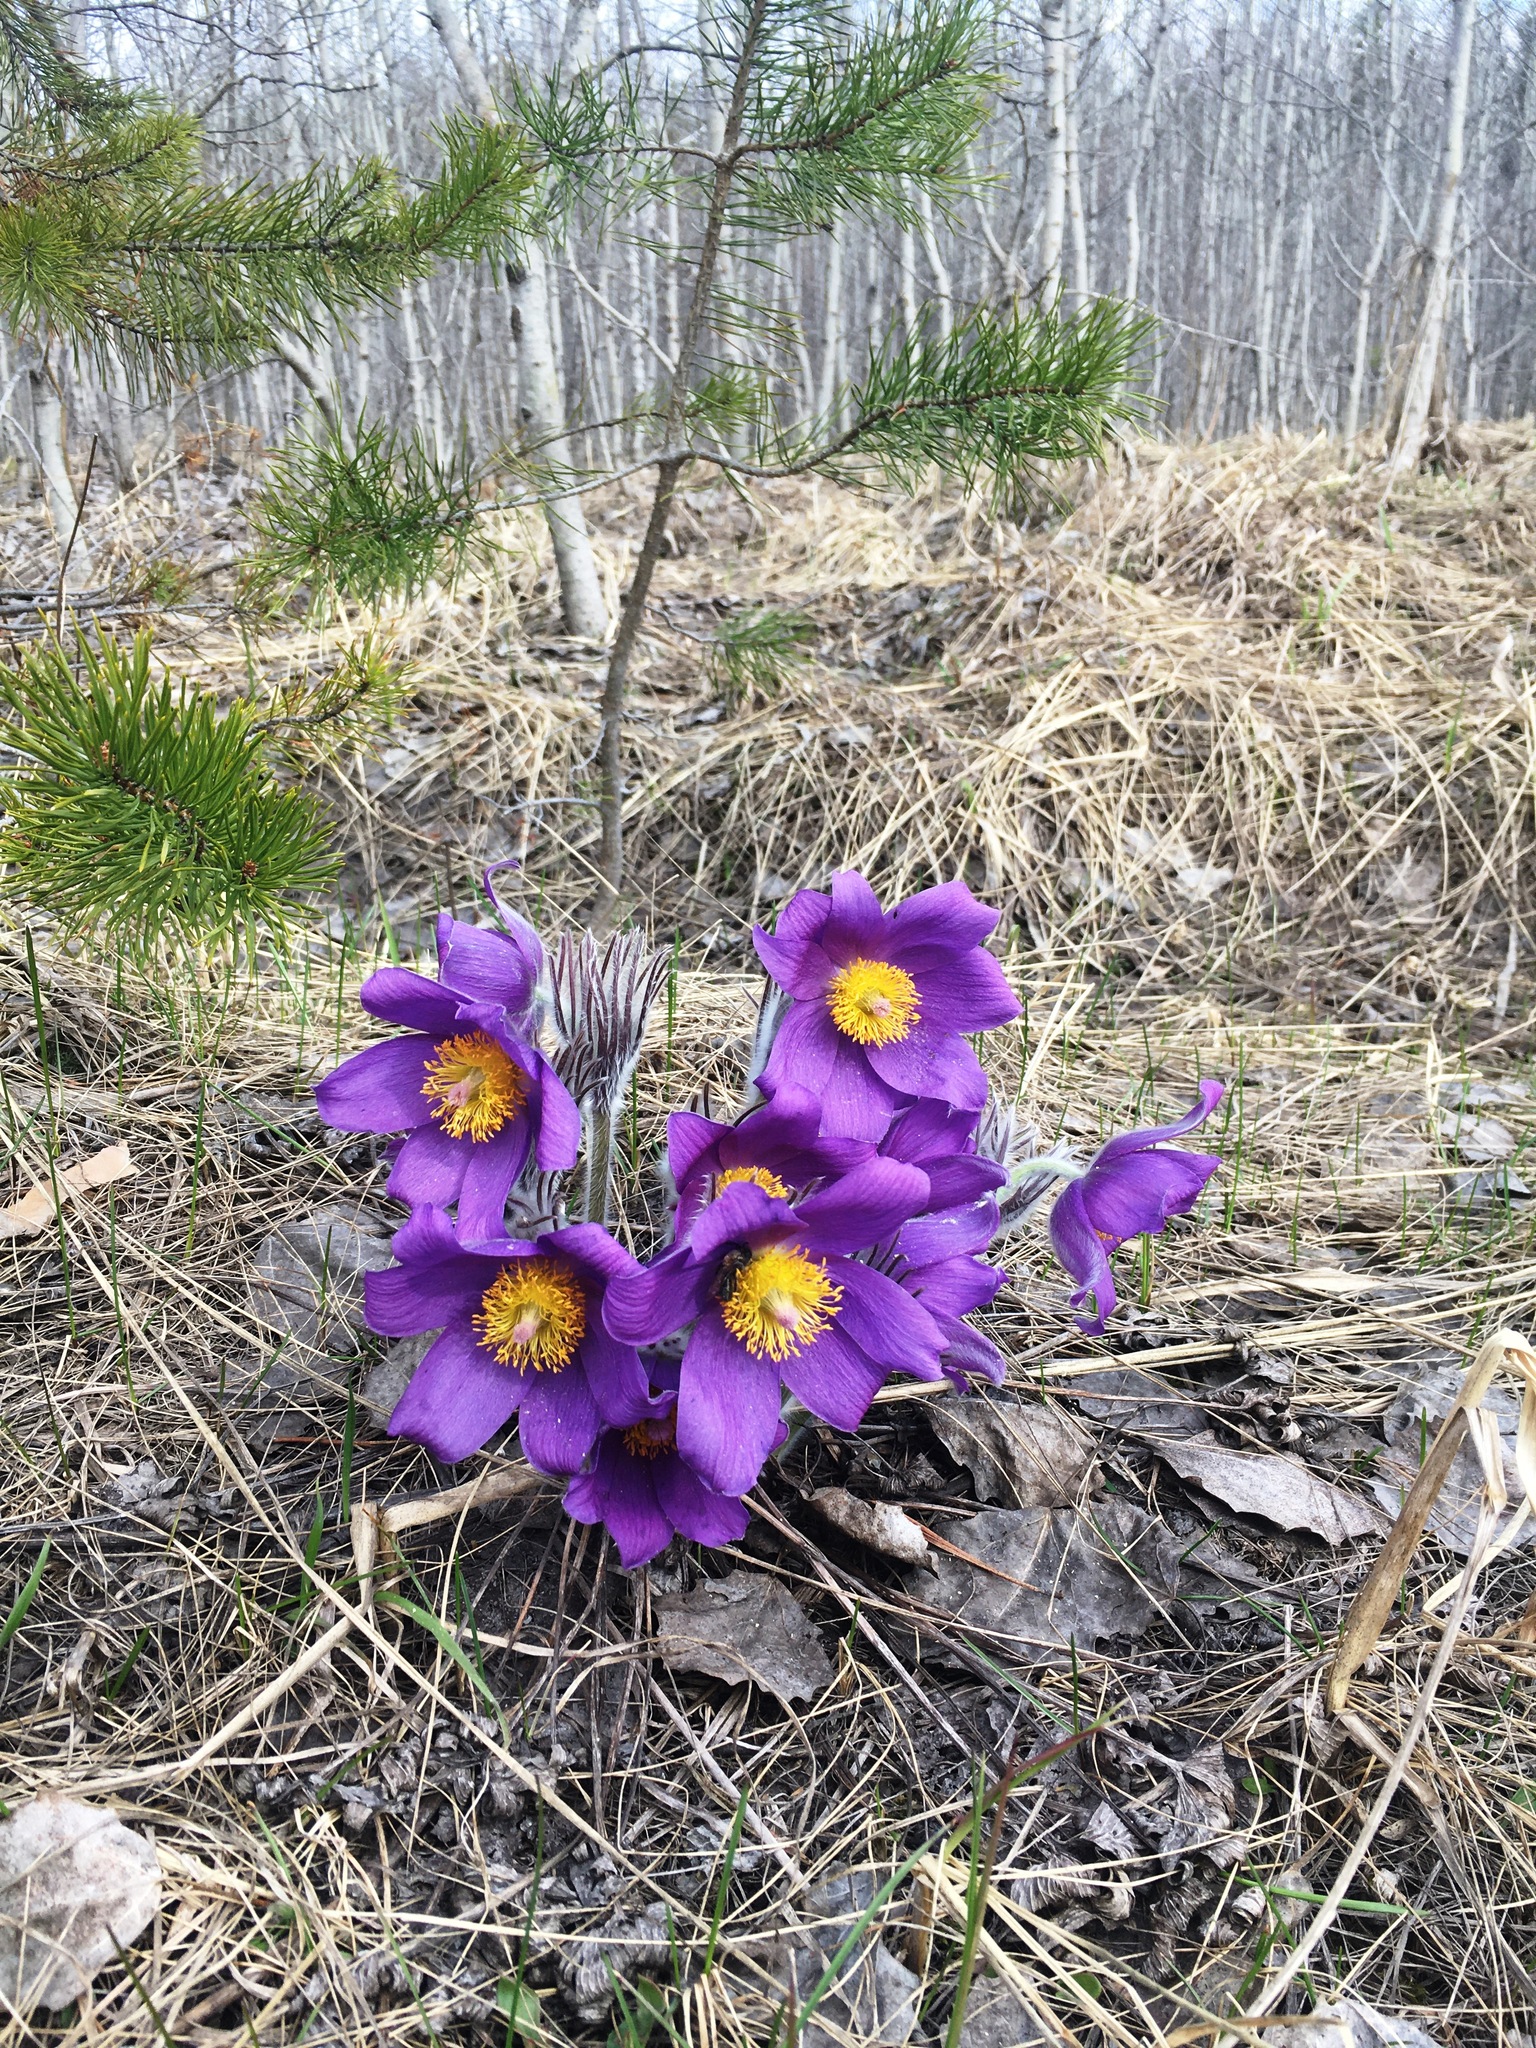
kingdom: Plantae
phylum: Tracheophyta
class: Magnoliopsida
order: Ranunculales
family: Ranunculaceae
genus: Pulsatilla
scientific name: Pulsatilla patens
